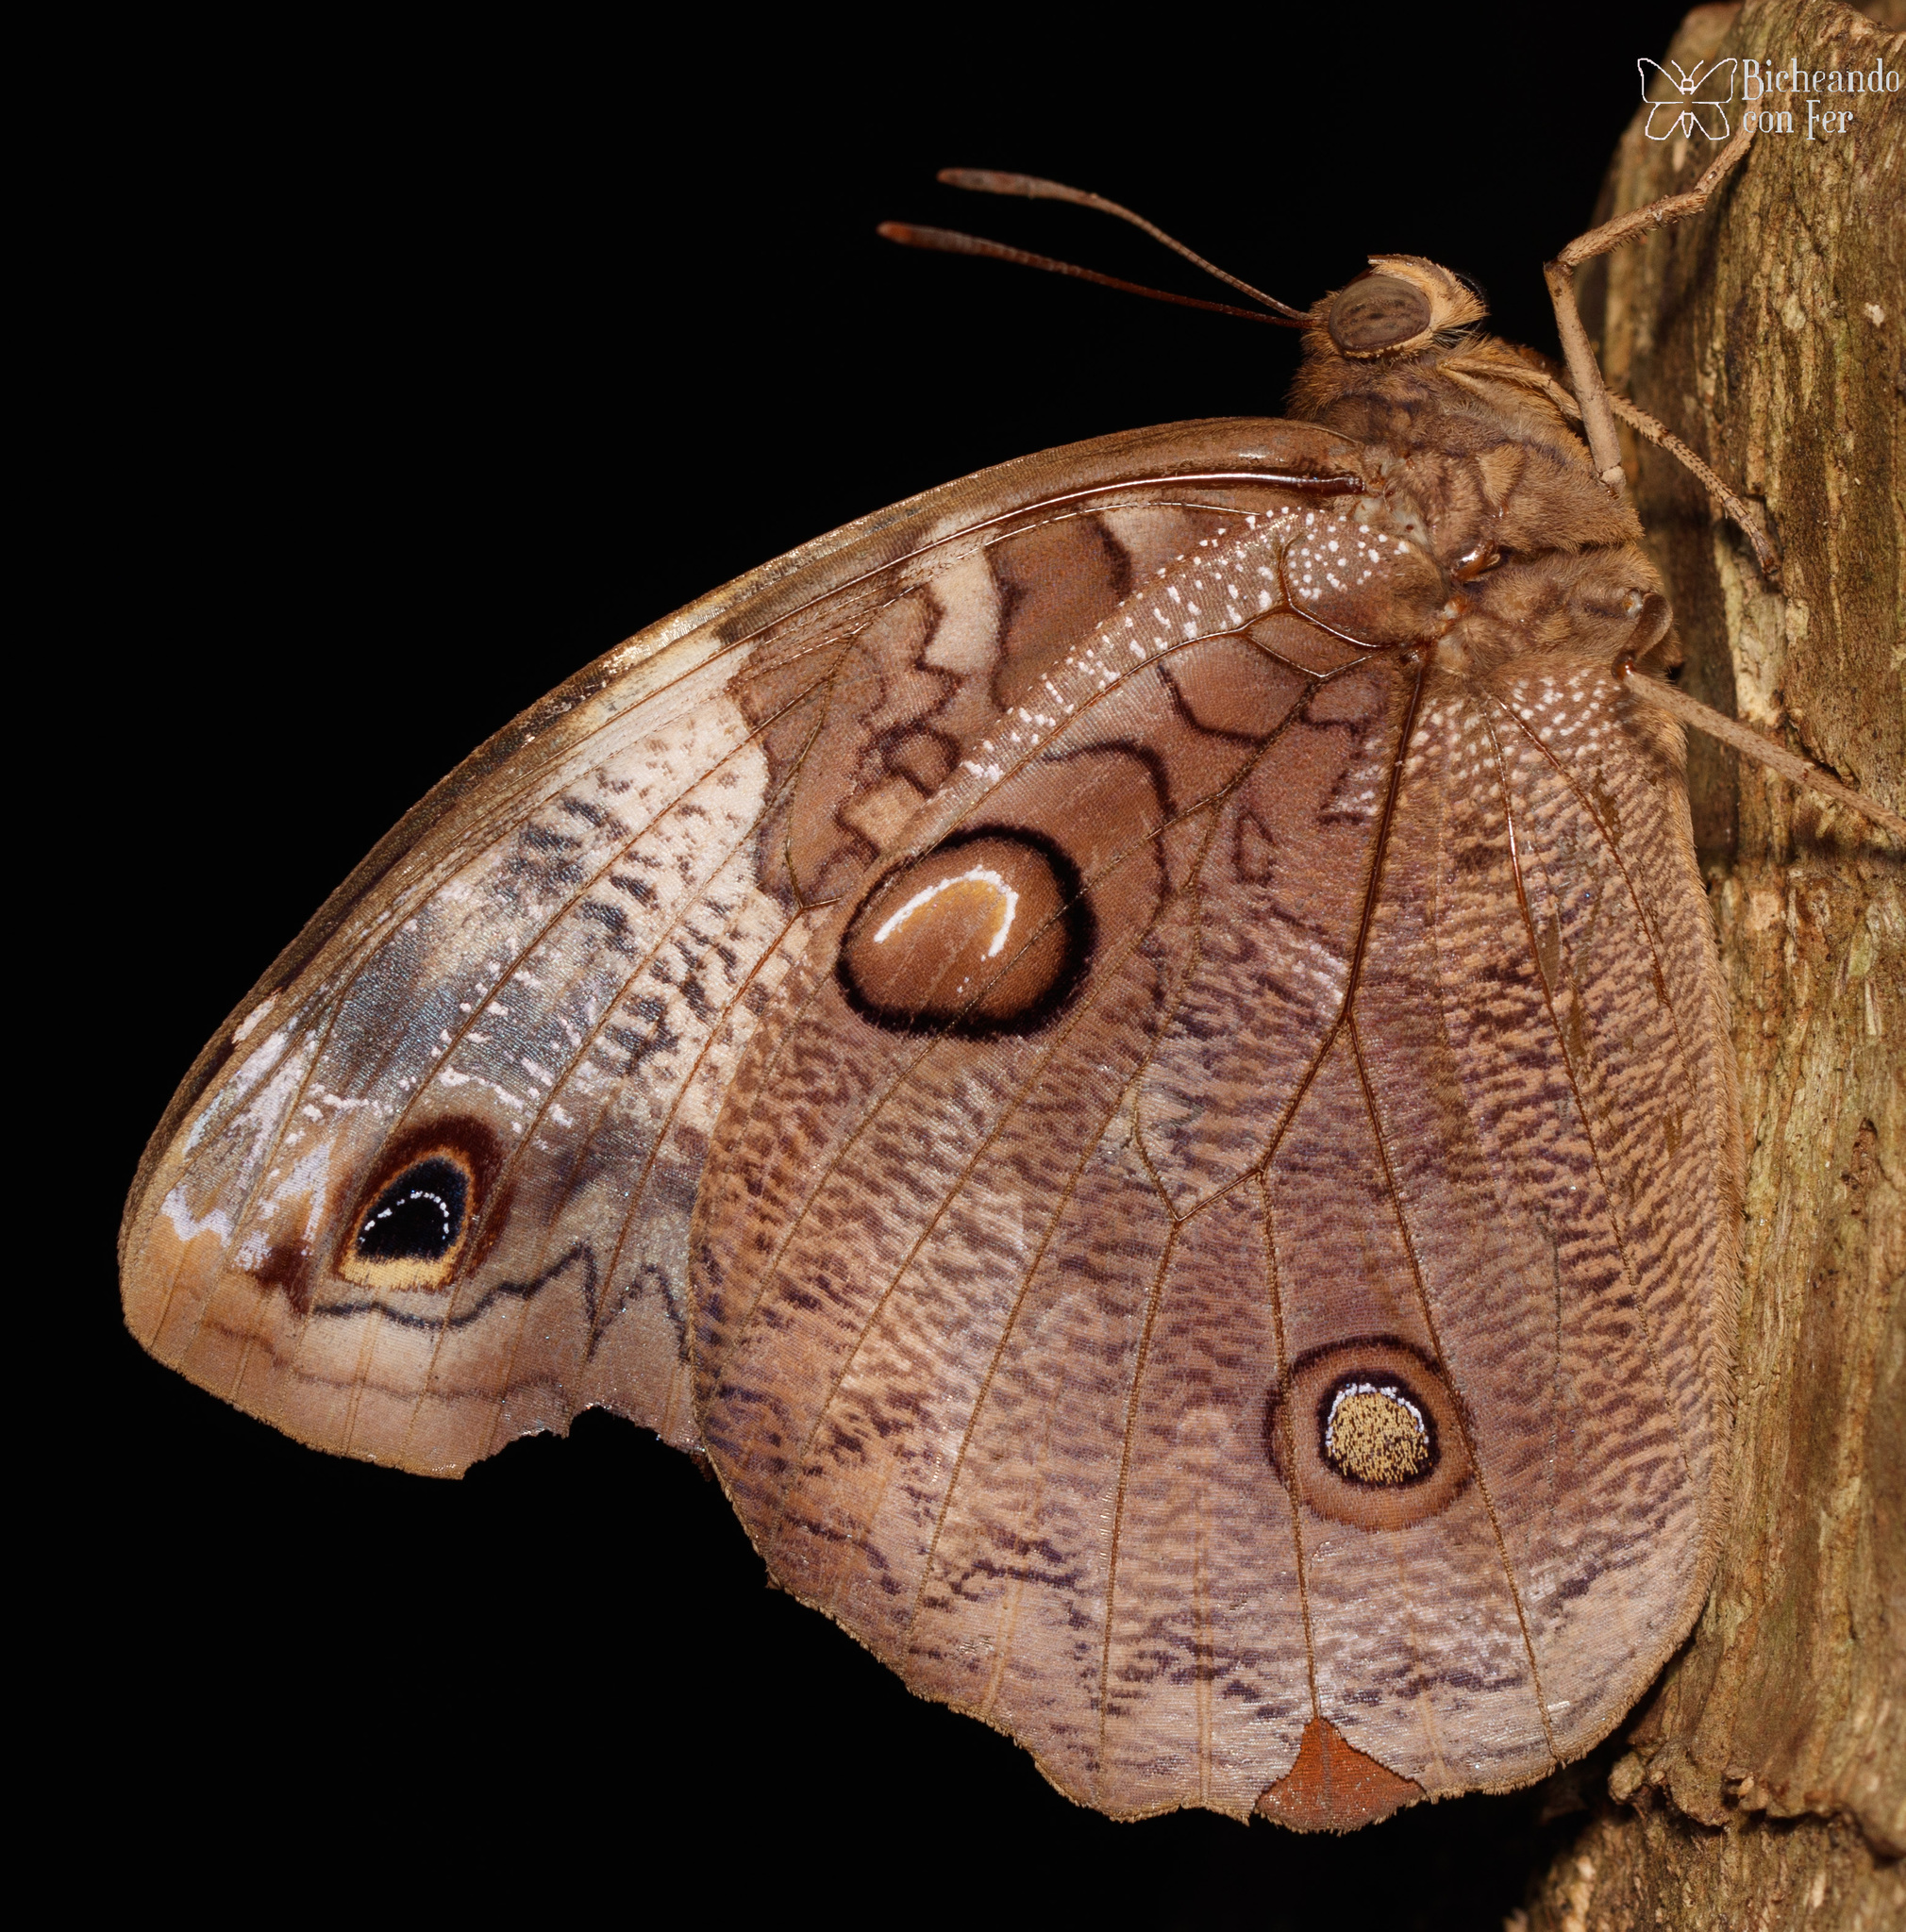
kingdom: Animalia
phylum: Arthropoda
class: Insecta
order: Lepidoptera
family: Nymphalidae
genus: Opsiphanes
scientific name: Opsiphanes fabricii
